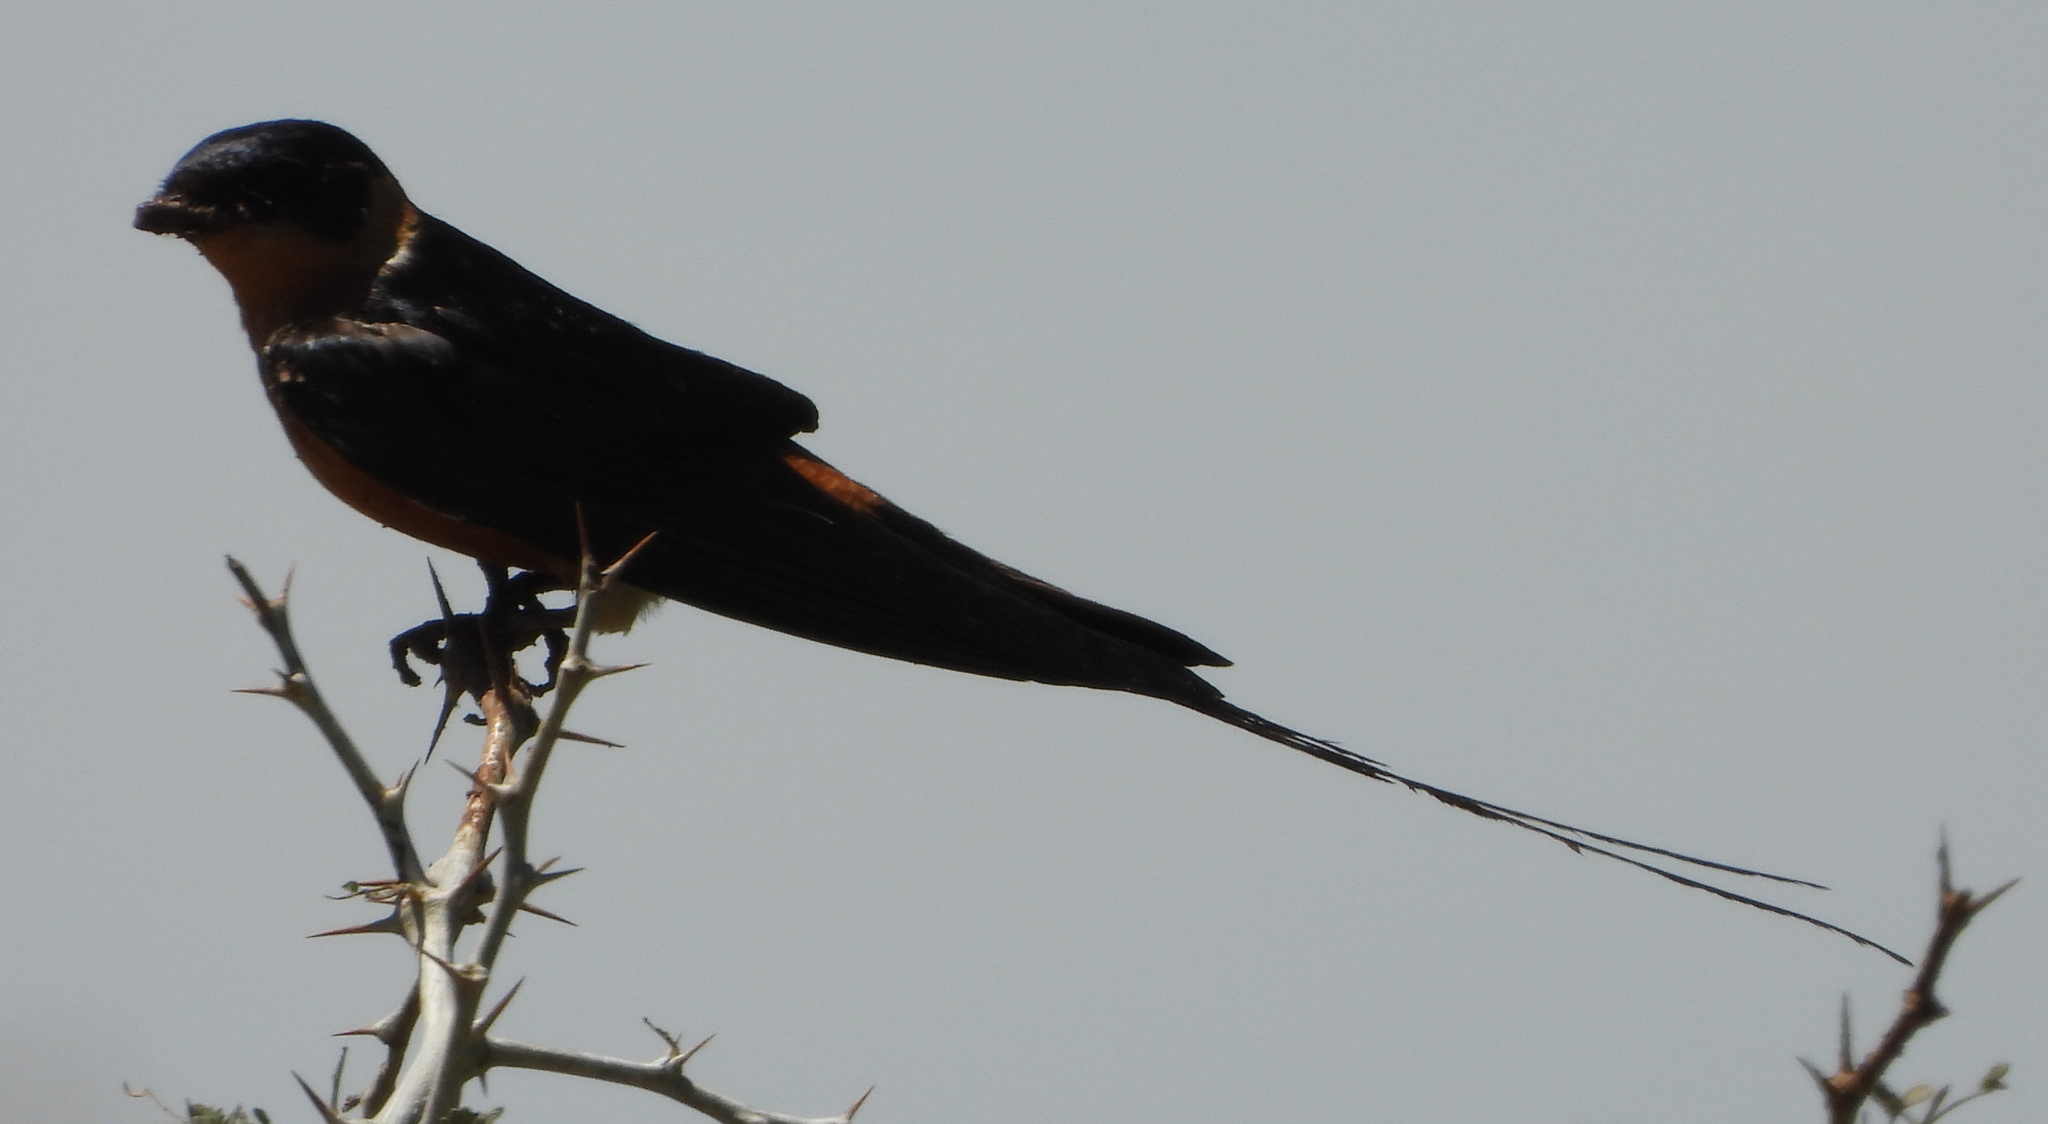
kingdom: Animalia
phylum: Chordata
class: Aves
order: Passeriformes
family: Hirundinidae
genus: Cecropis
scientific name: Cecropis semirufa
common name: Red-breasted swallow
